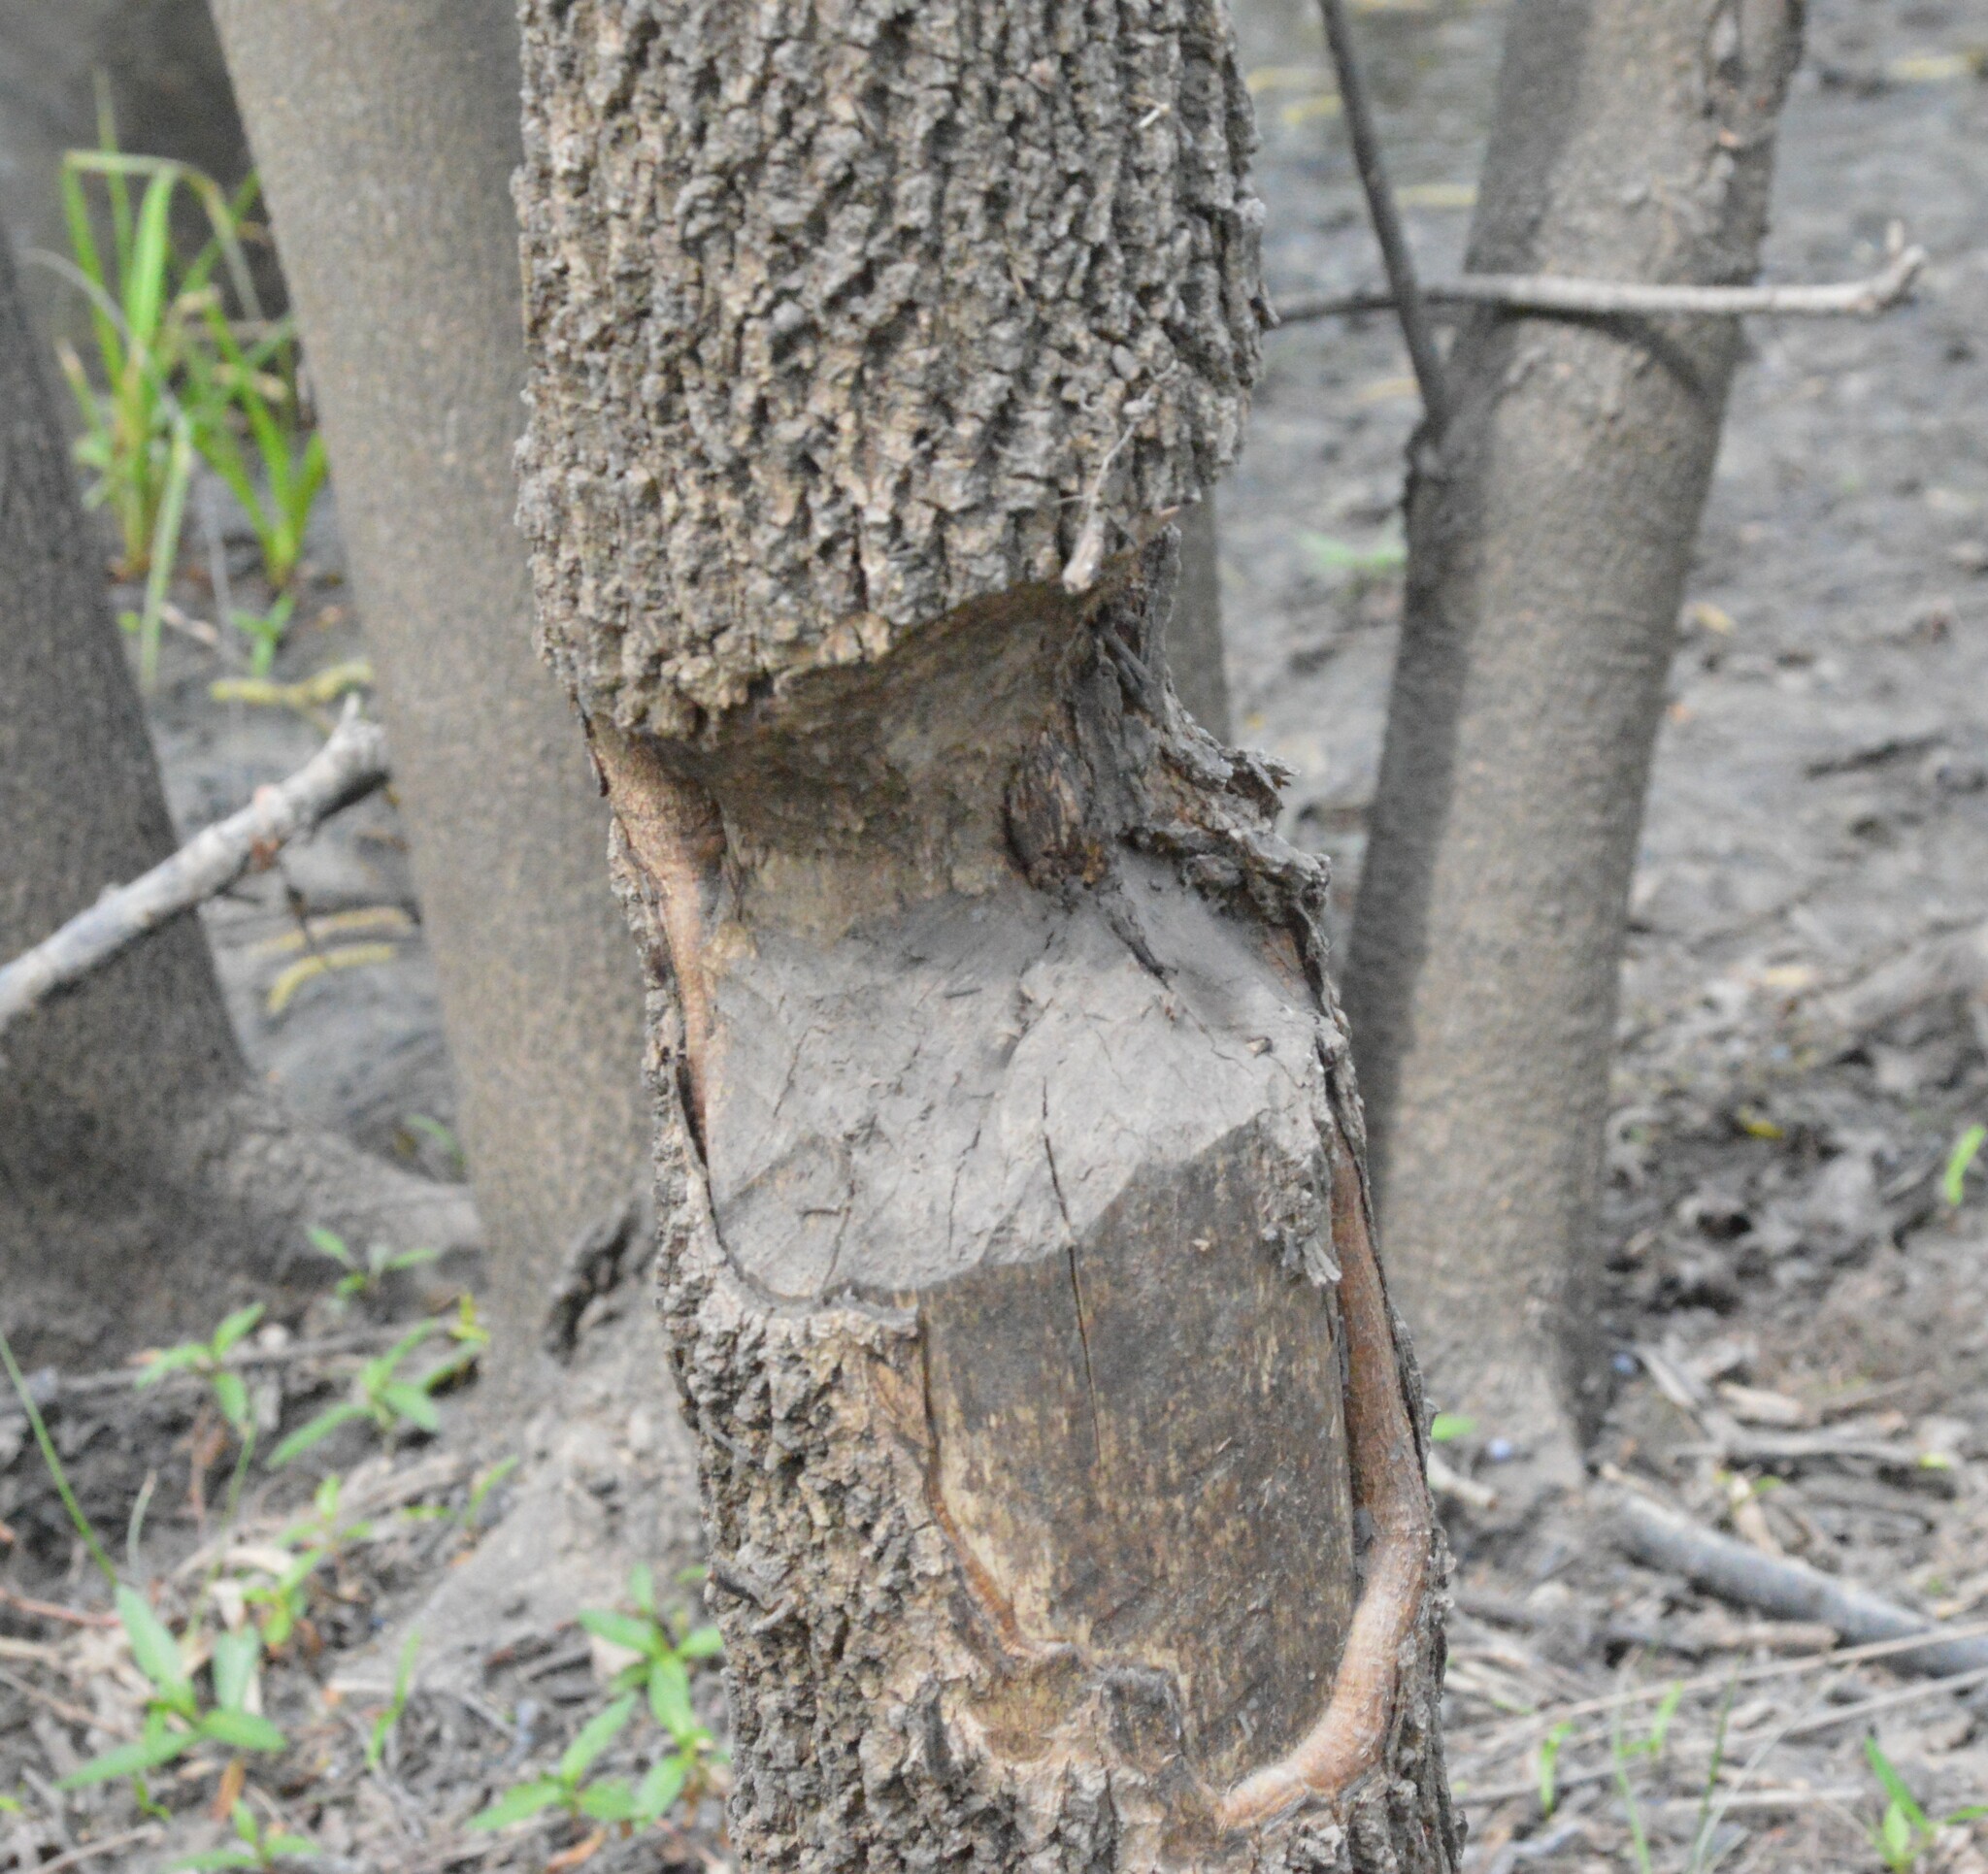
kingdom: Animalia
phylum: Chordata
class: Mammalia
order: Rodentia
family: Castoridae
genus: Castor
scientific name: Castor canadensis
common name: American beaver
